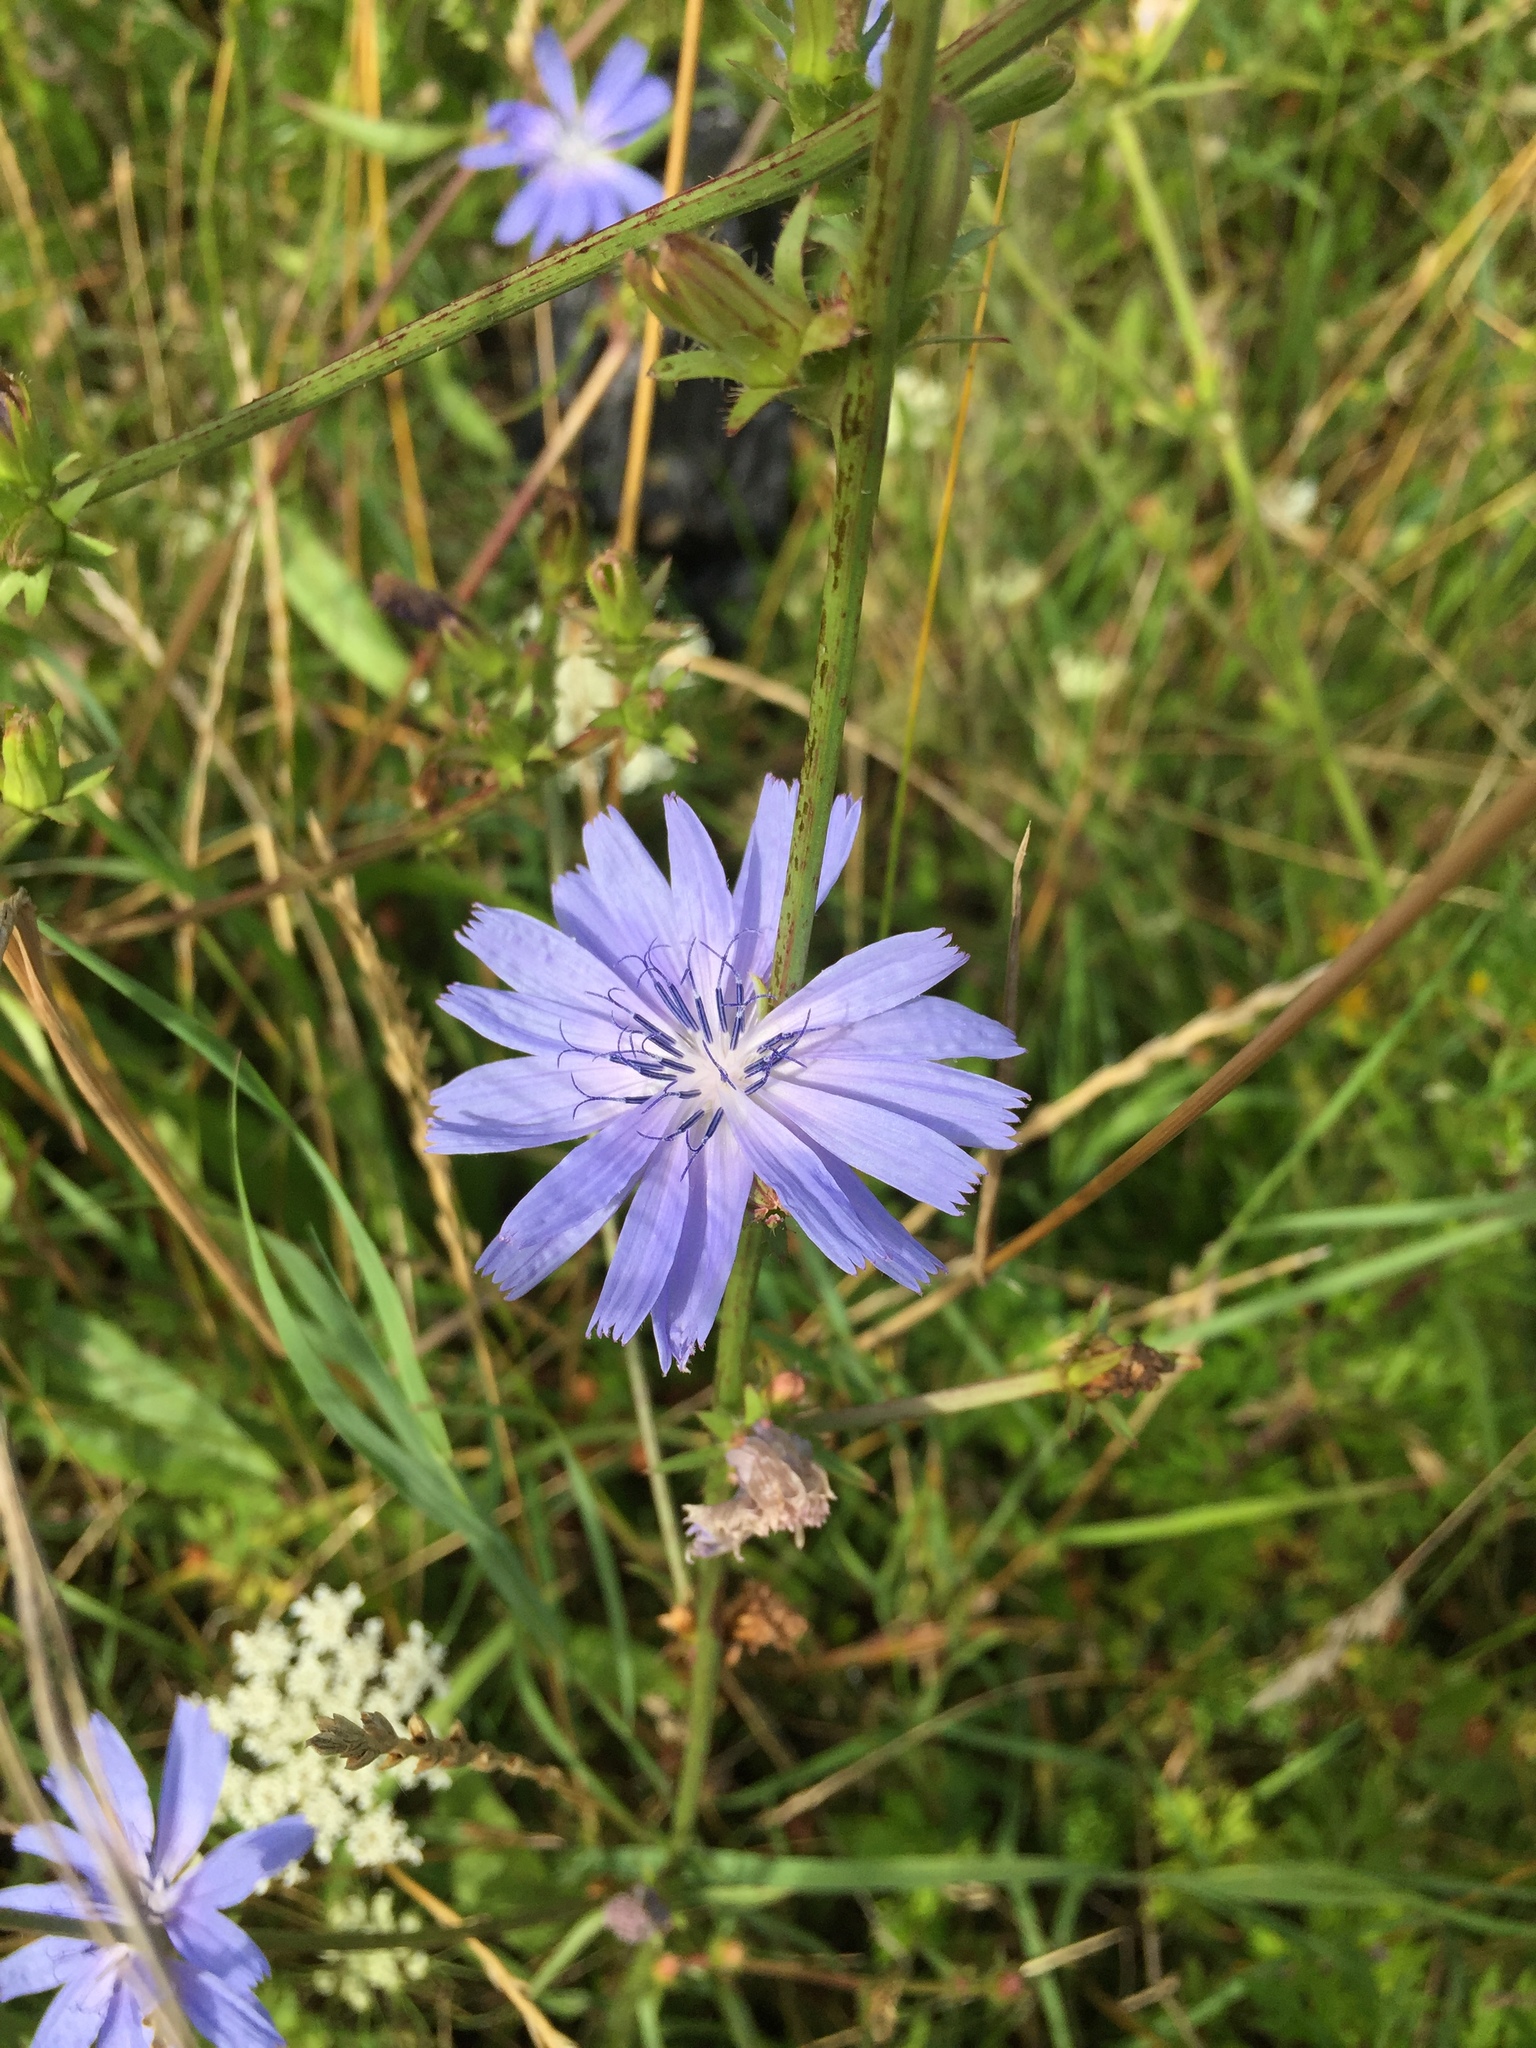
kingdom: Plantae
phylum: Tracheophyta
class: Magnoliopsida
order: Asterales
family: Asteraceae
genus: Cichorium
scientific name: Cichorium intybus
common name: Chicory
